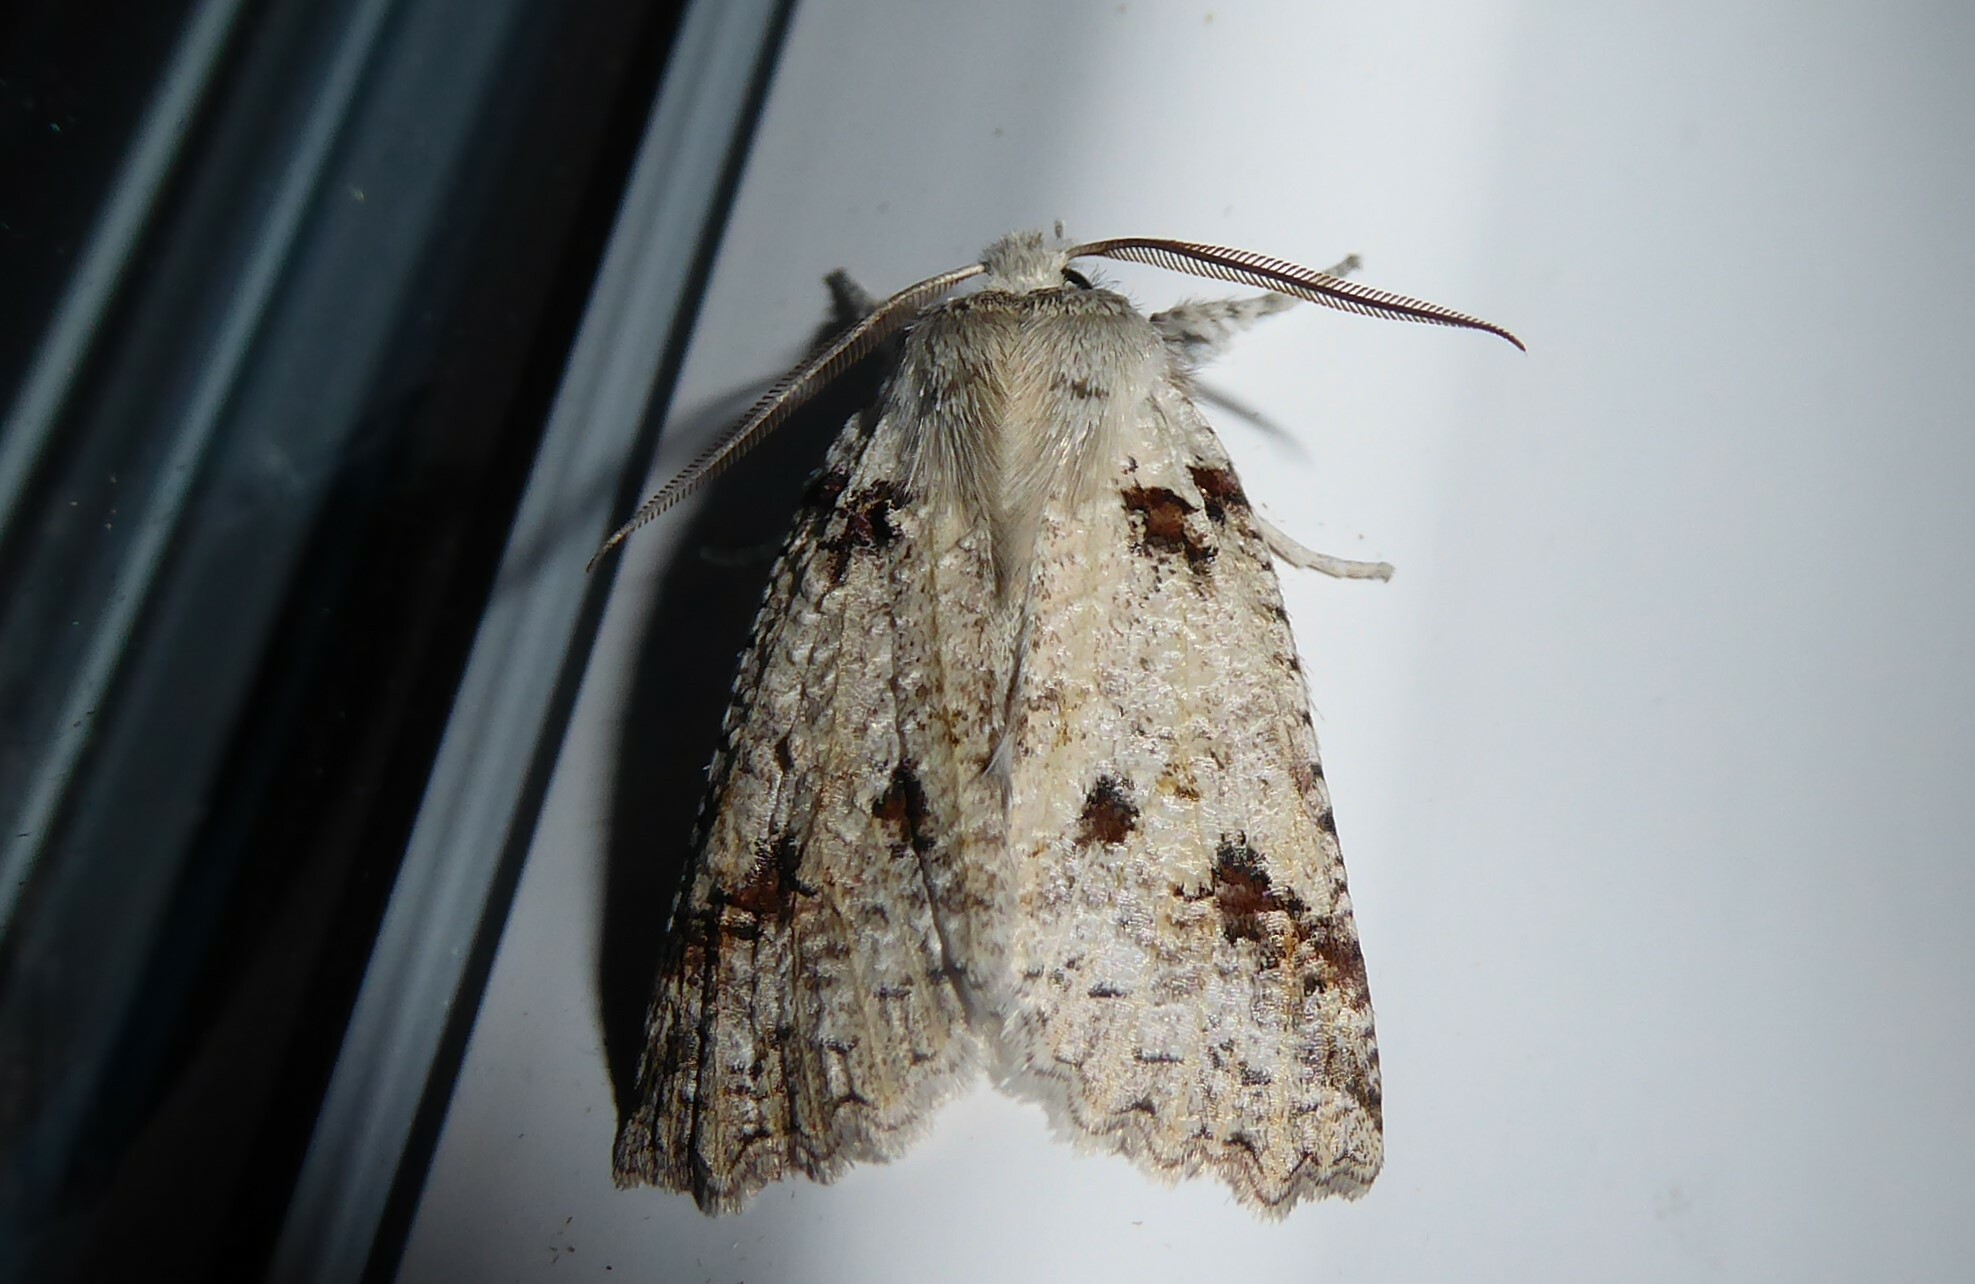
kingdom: Animalia
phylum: Arthropoda
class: Insecta
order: Lepidoptera
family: Geometridae
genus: Declana
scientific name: Declana floccosa
